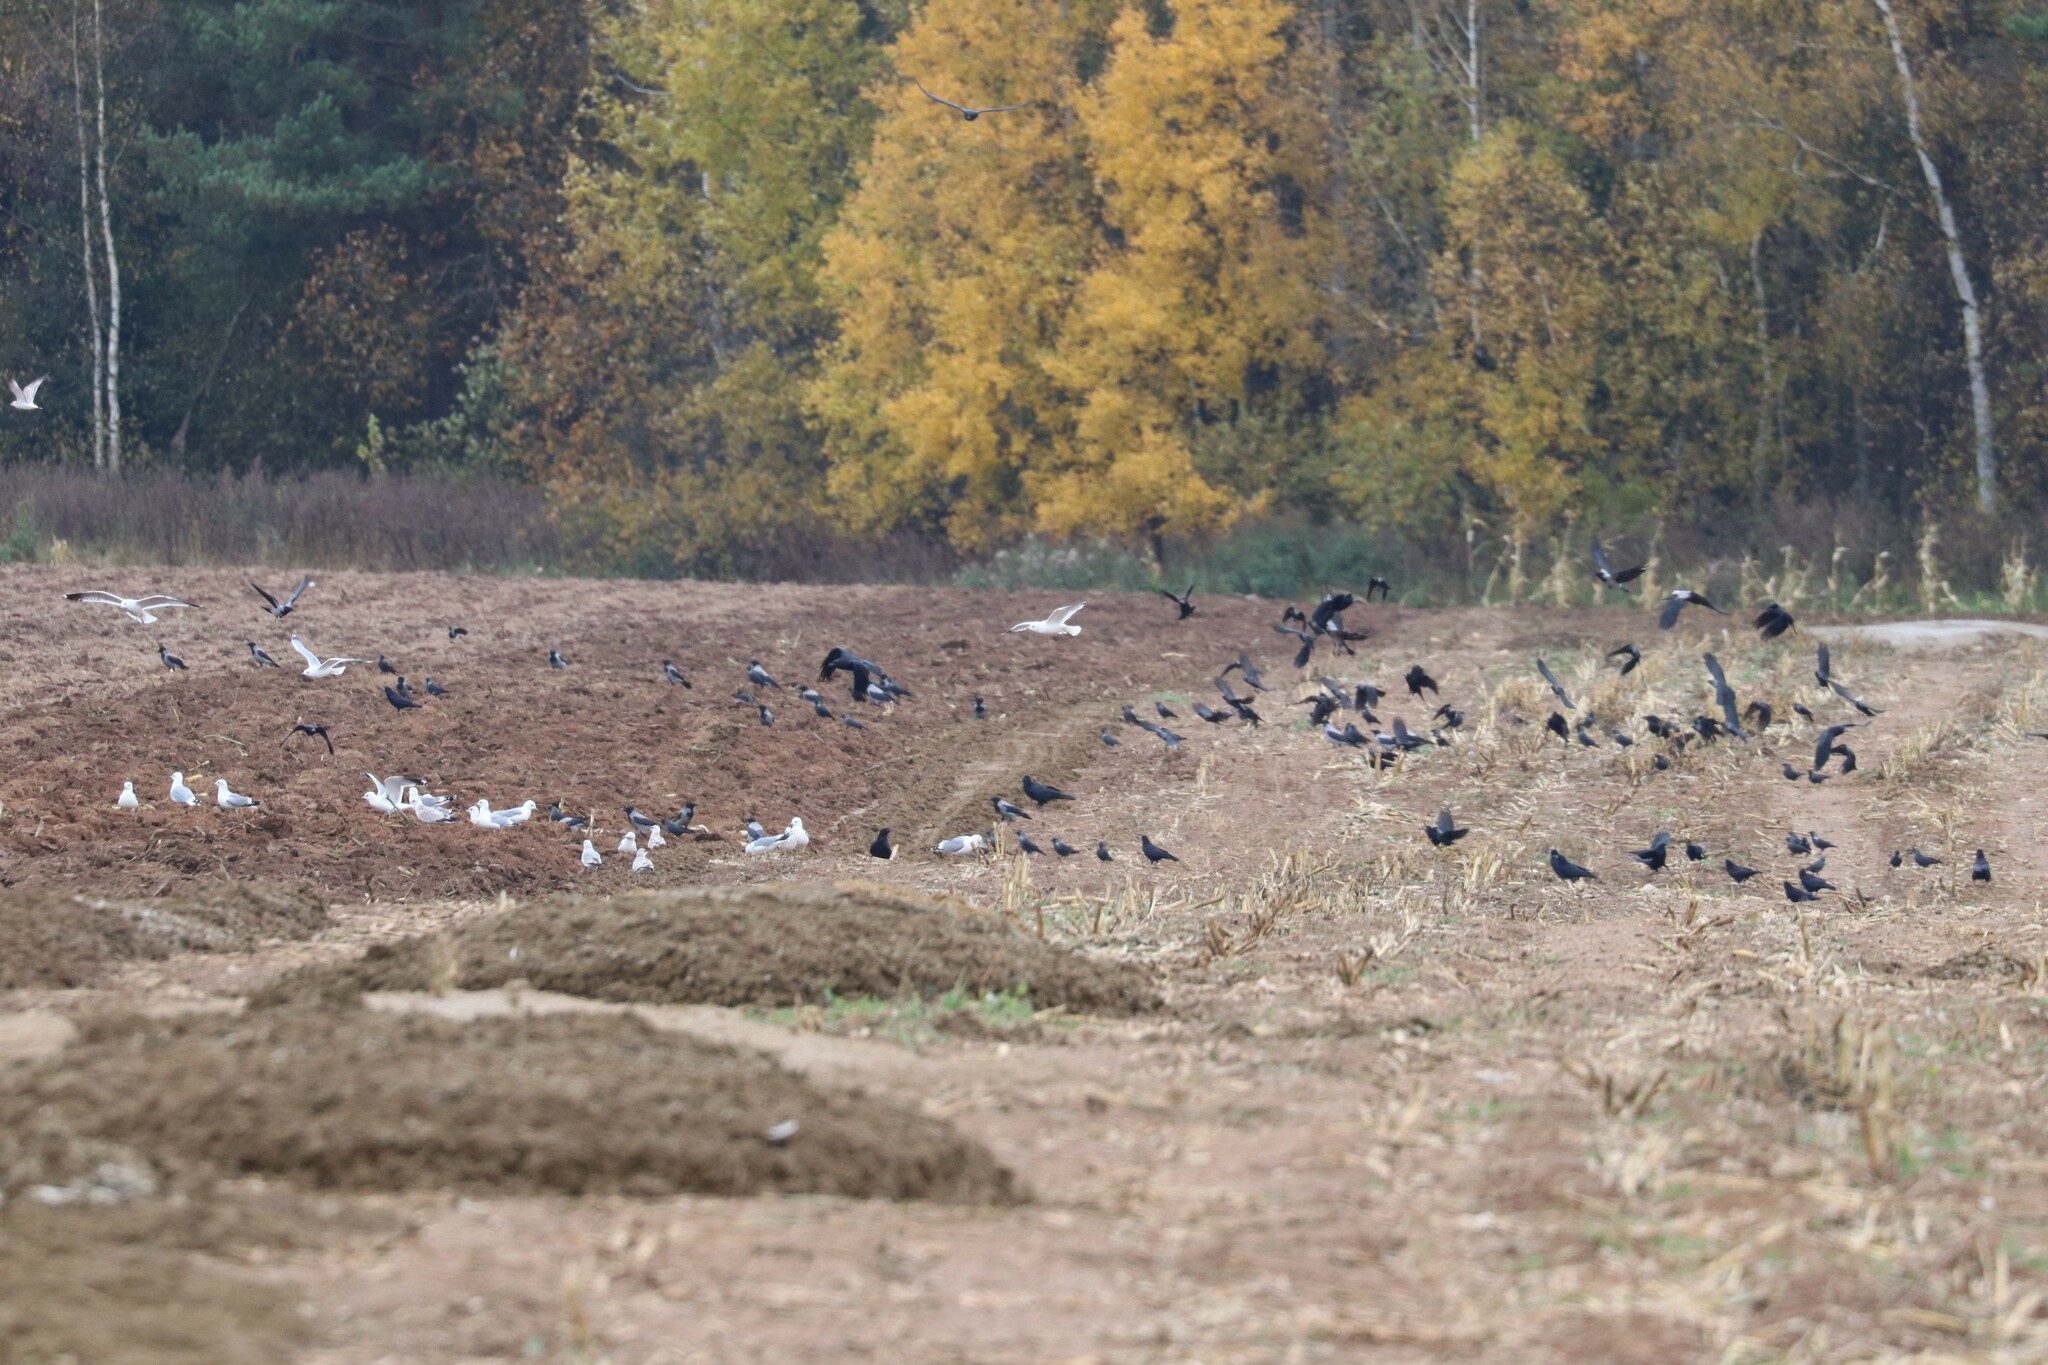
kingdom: Animalia
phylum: Chordata
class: Aves
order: Passeriformes
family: Corvidae
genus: Corvus
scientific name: Corvus frugilegus
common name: Rook
